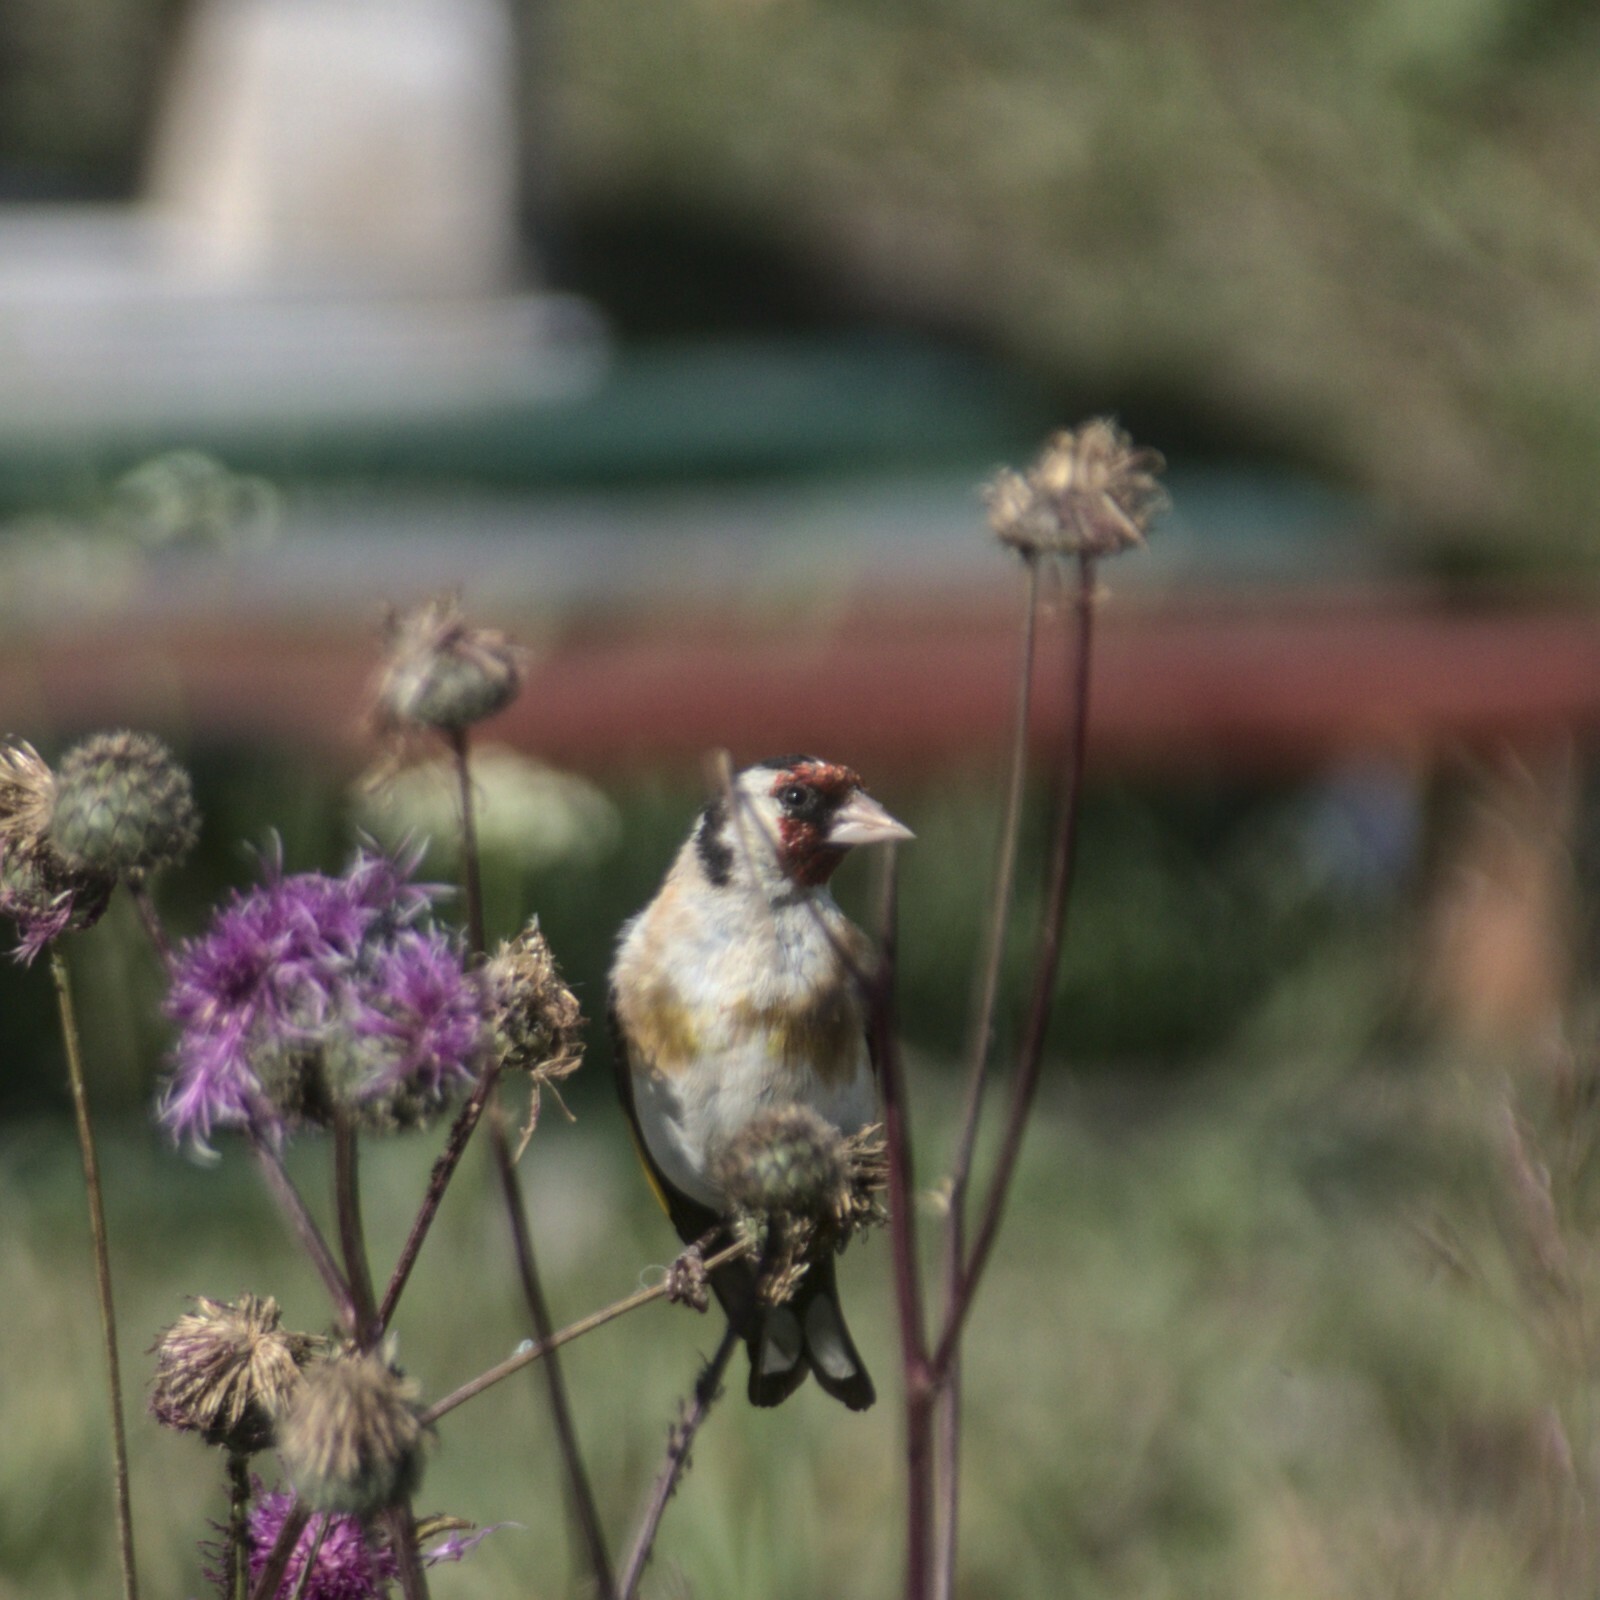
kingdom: Animalia
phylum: Chordata
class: Aves
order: Passeriformes
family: Fringillidae
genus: Carduelis
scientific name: Carduelis carduelis
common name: European goldfinch
